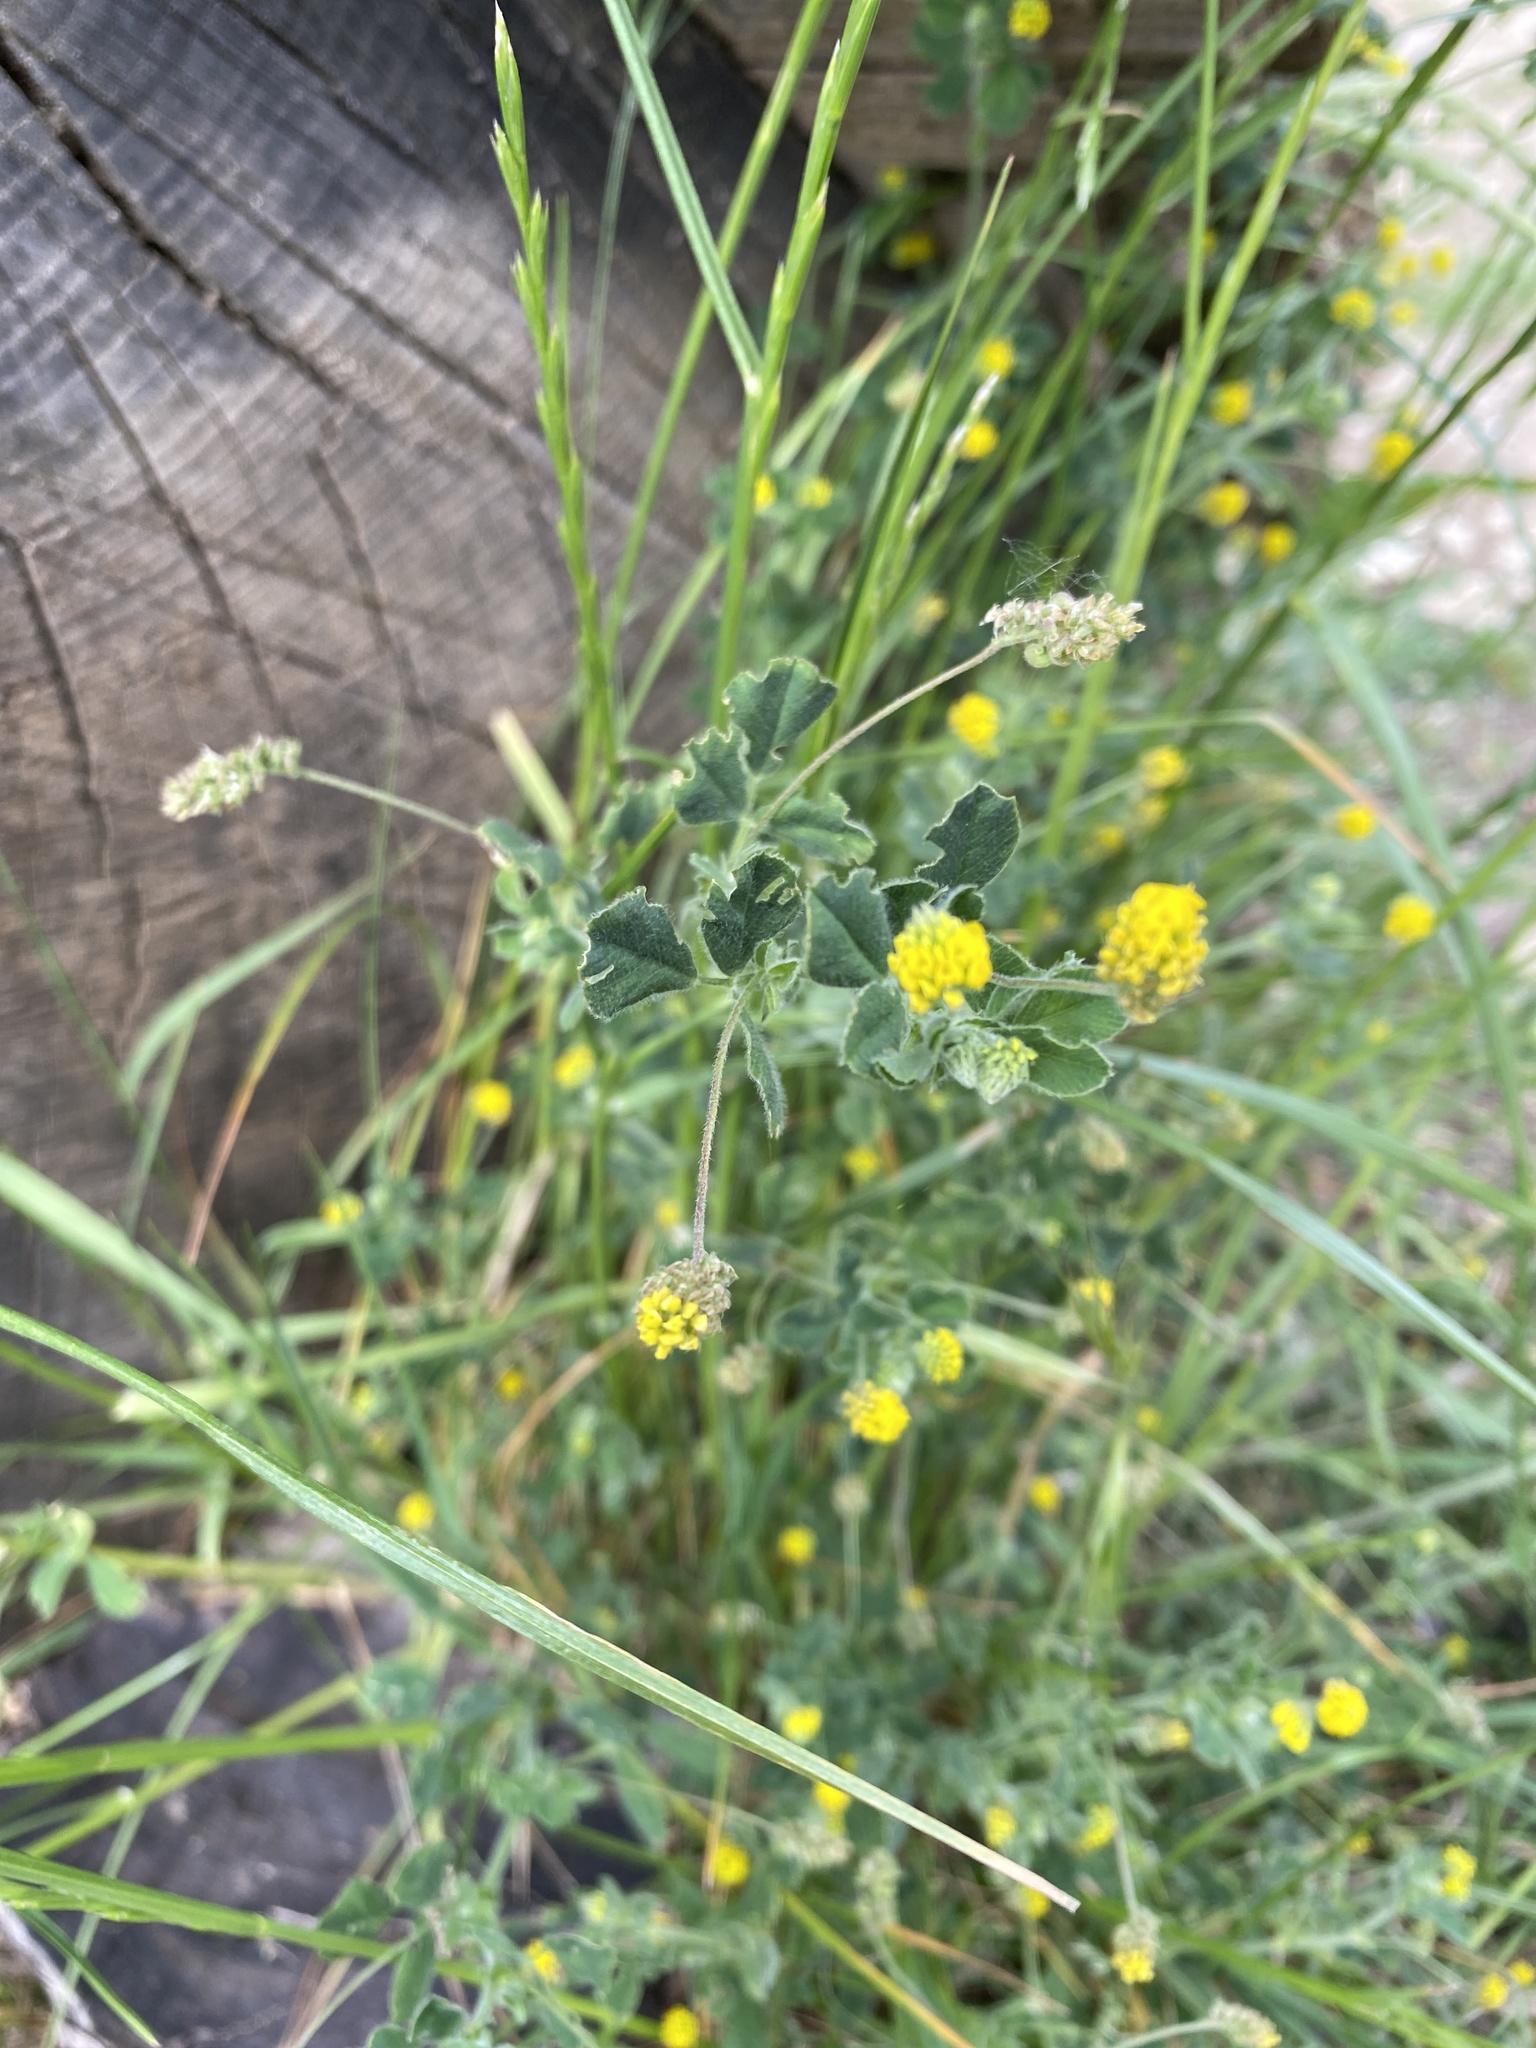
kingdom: Plantae
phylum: Tracheophyta
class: Magnoliopsida
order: Fabales
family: Fabaceae
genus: Medicago
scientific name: Medicago lupulina
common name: Black medick
